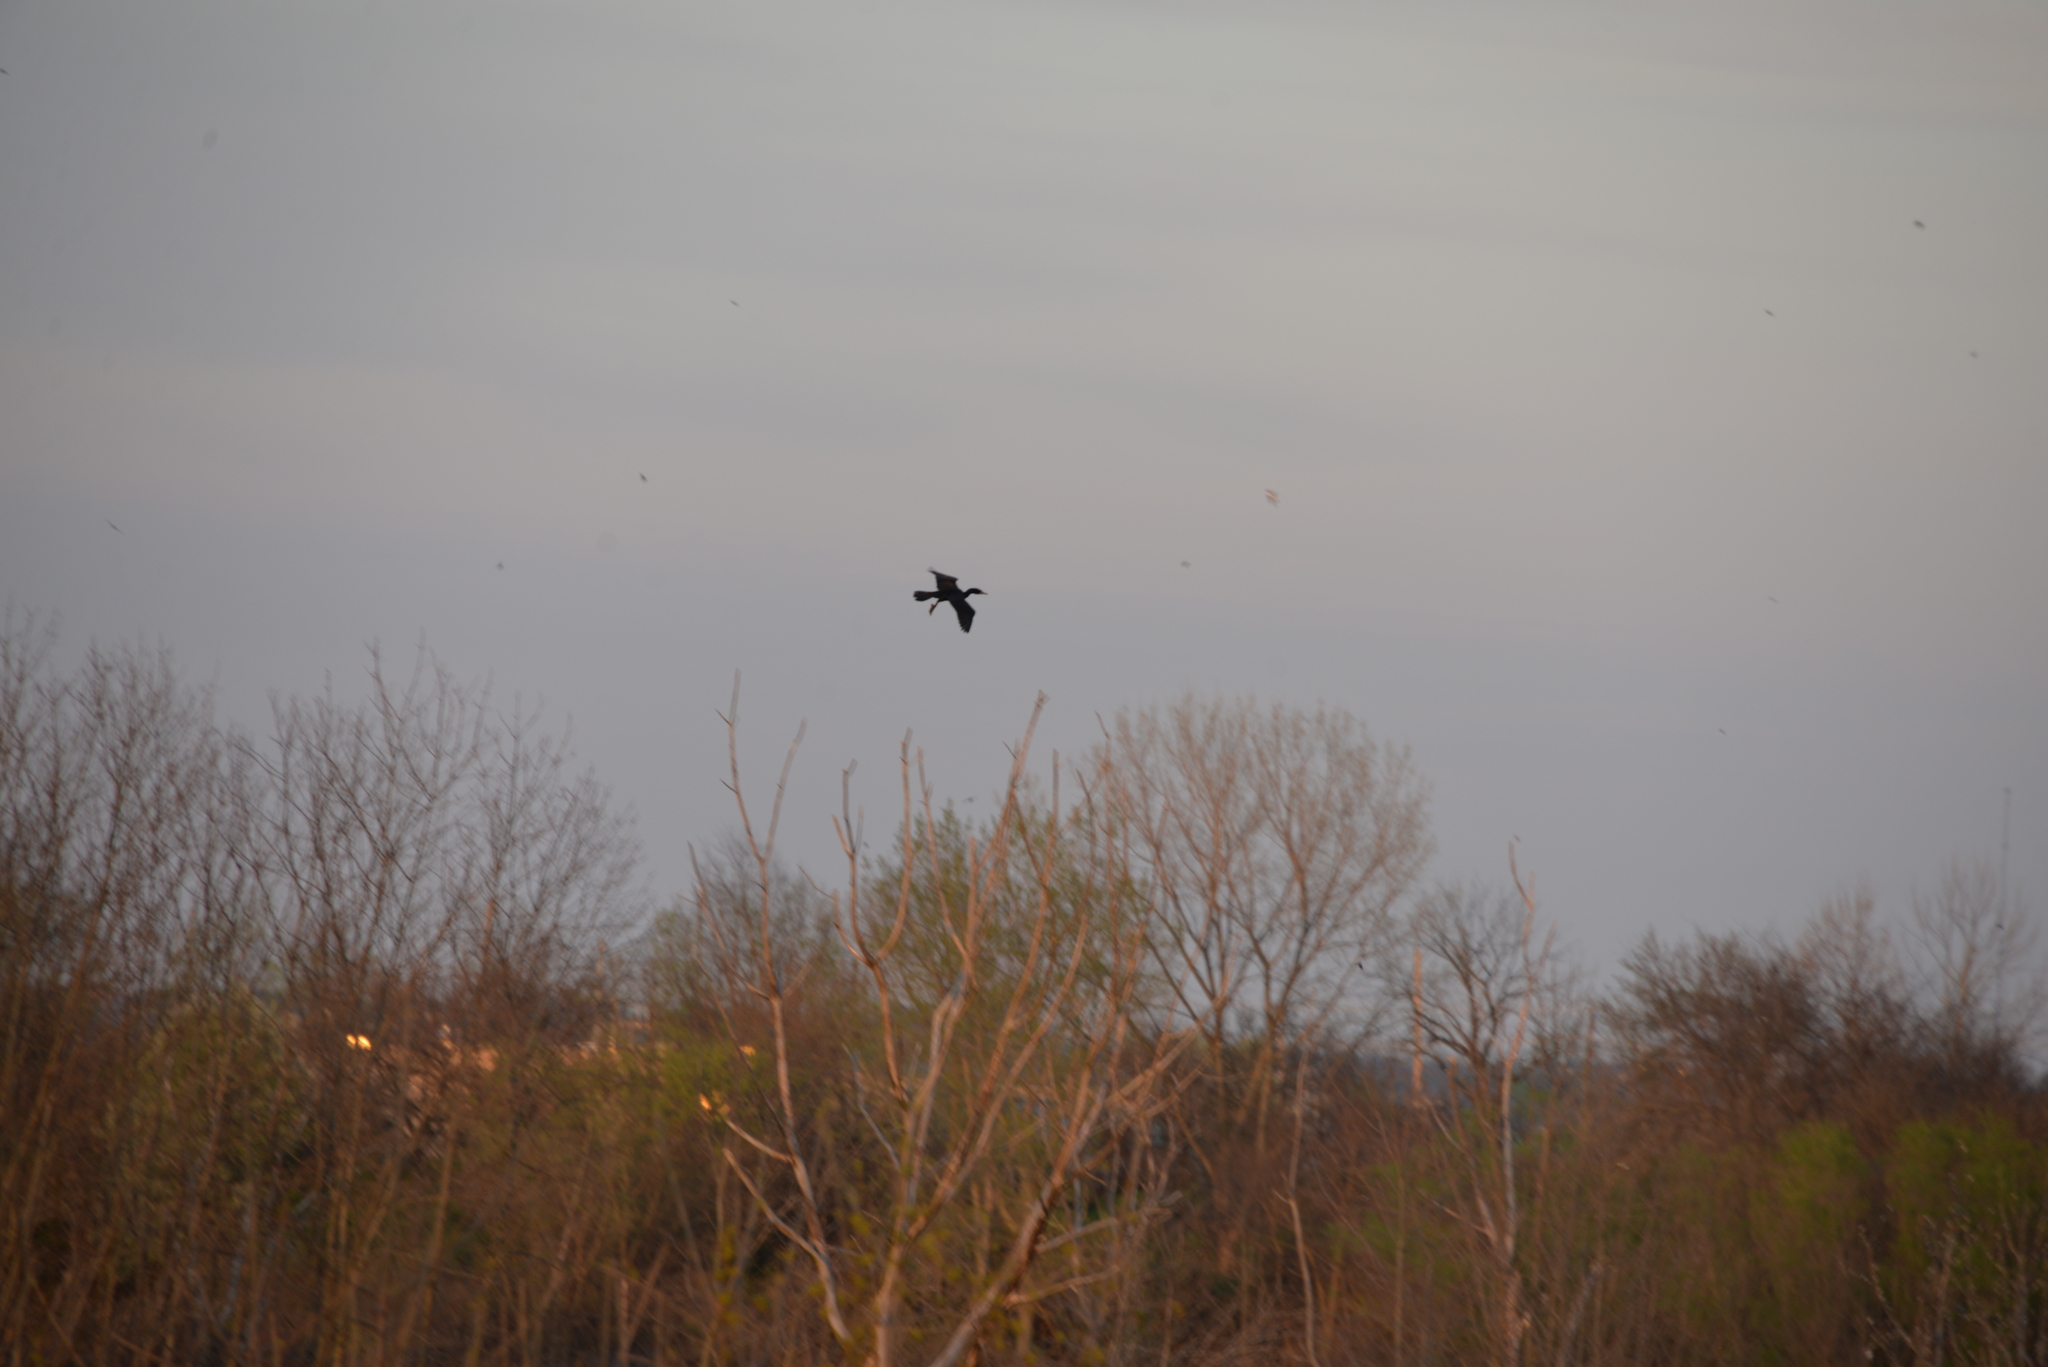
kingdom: Animalia
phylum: Chordata
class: Aves
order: Suliformes
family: Phalacrocoracidae
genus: Phalacrocorax
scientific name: Phalacrocorax auritus
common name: Double-crested cormorant
